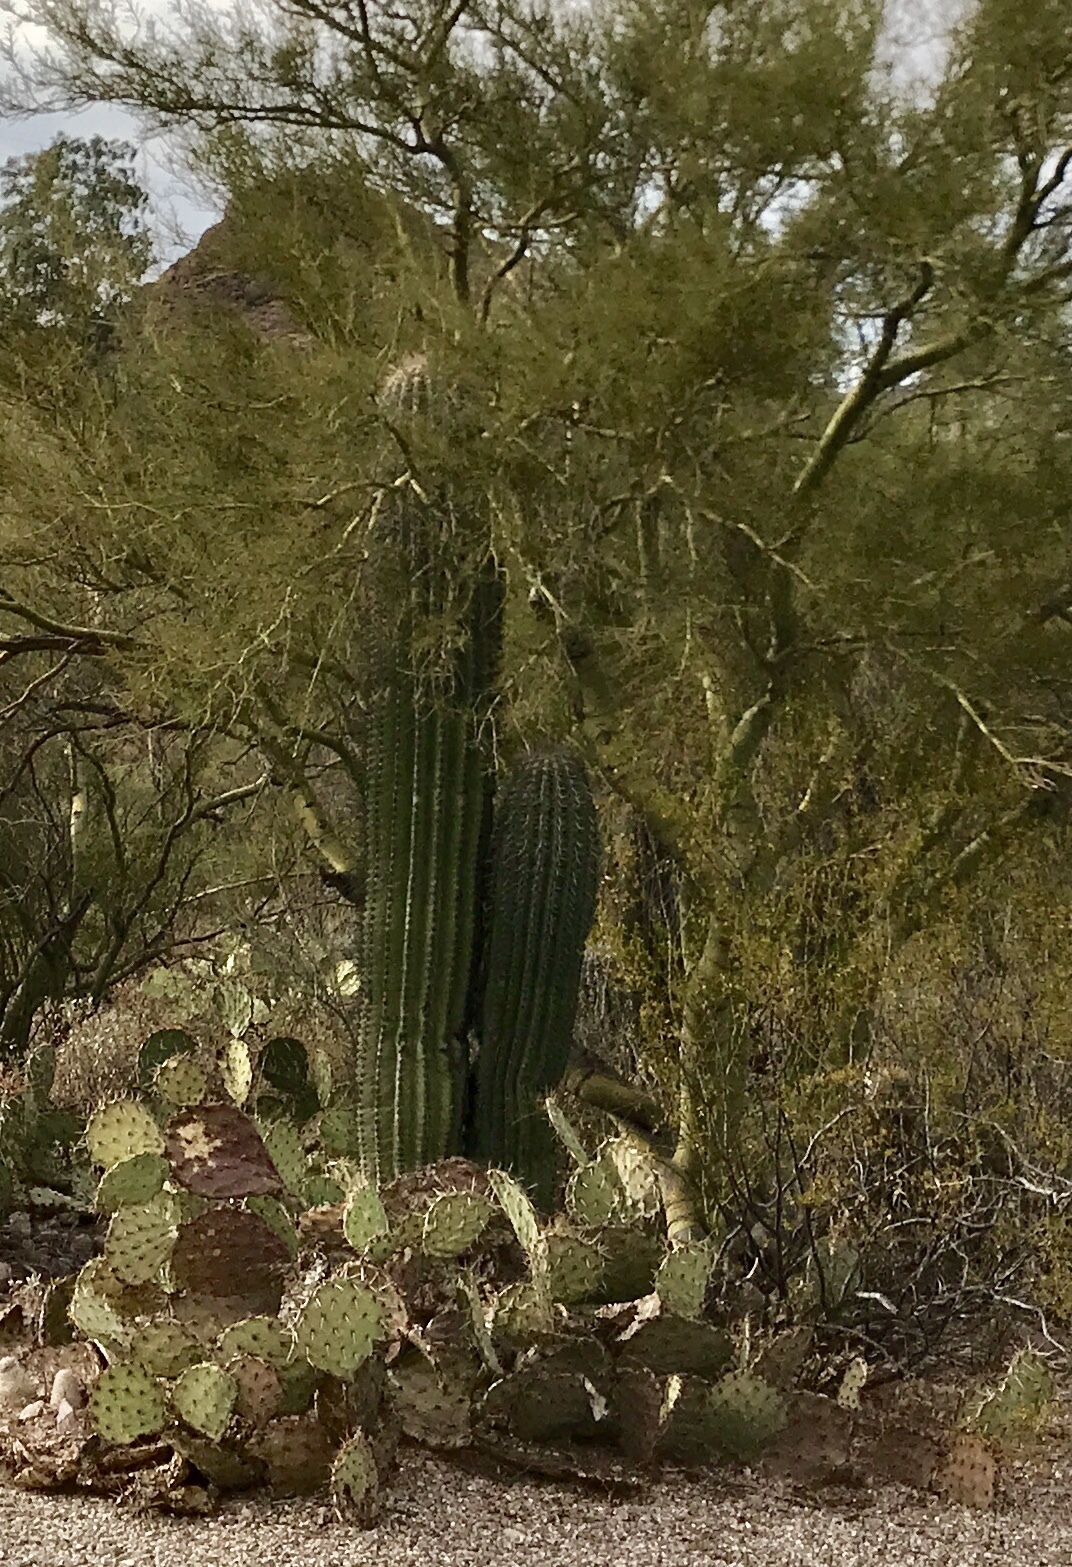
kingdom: Plantae
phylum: Tracheophyta
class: Magnoliopsida
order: Caryophyllales
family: Cactaceae
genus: Carnegiea
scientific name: Carnegiea gigantea
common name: Saguaro
